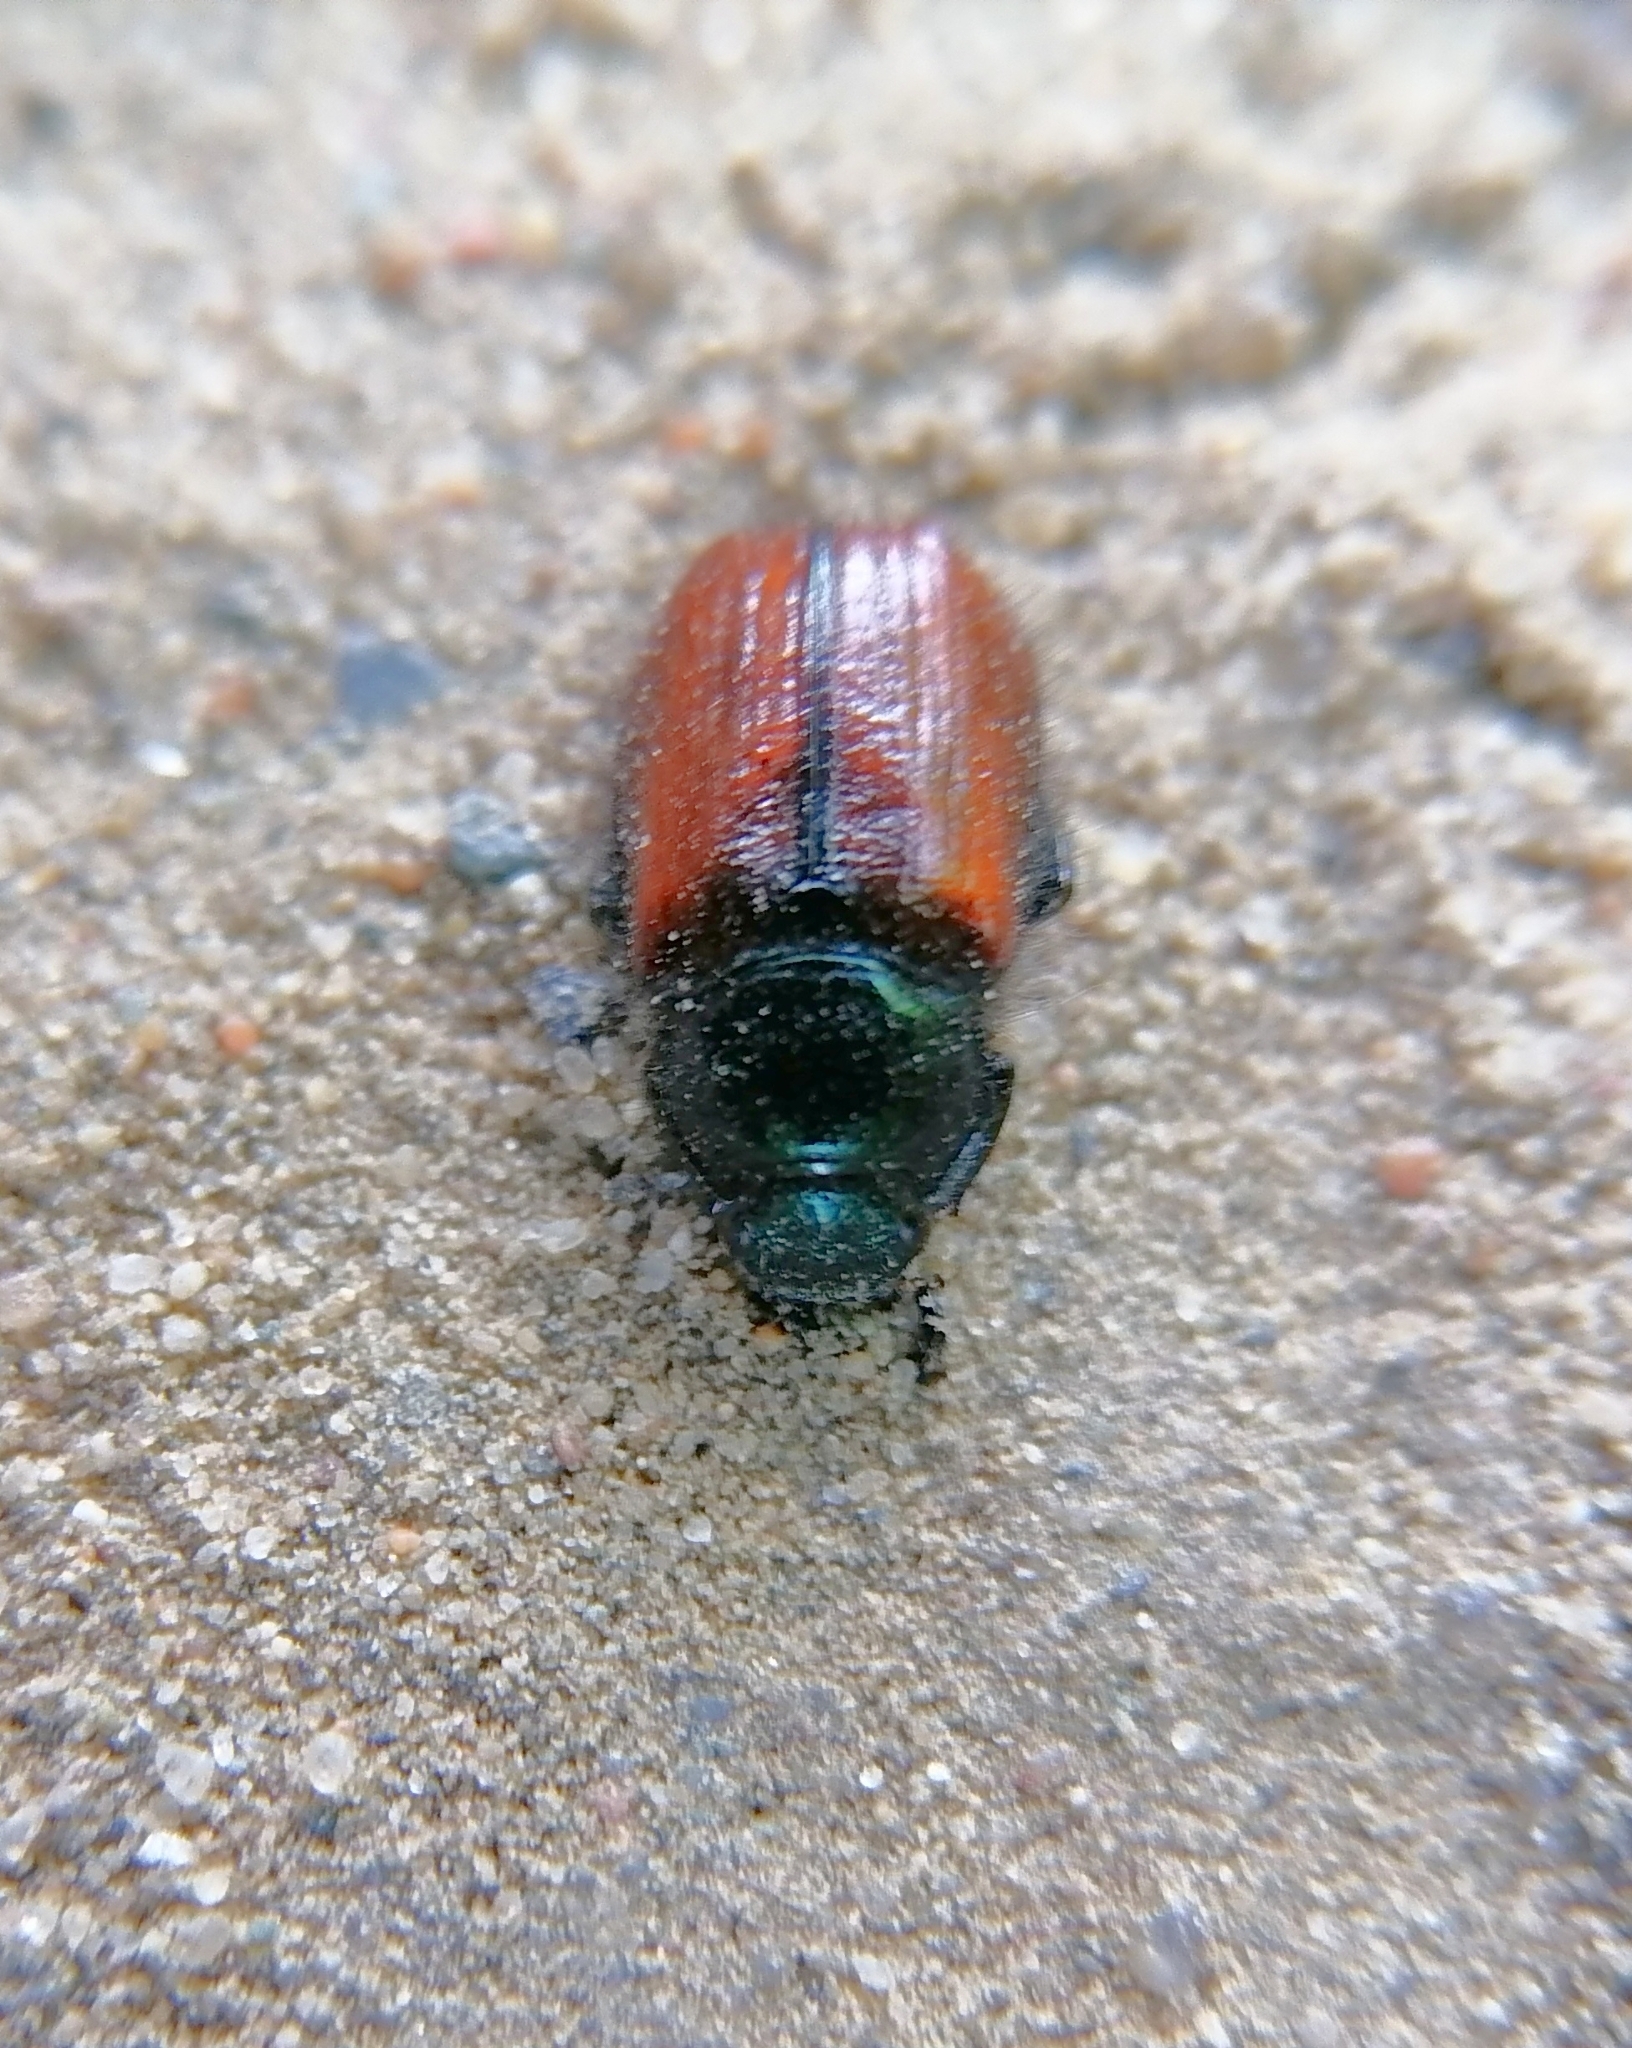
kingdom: Animalia
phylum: Arthropoda
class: Insecta
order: Coleoptera
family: Scarabaeidae
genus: Phyllopertha
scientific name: Phyllopertha horticola
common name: Garden chafer
